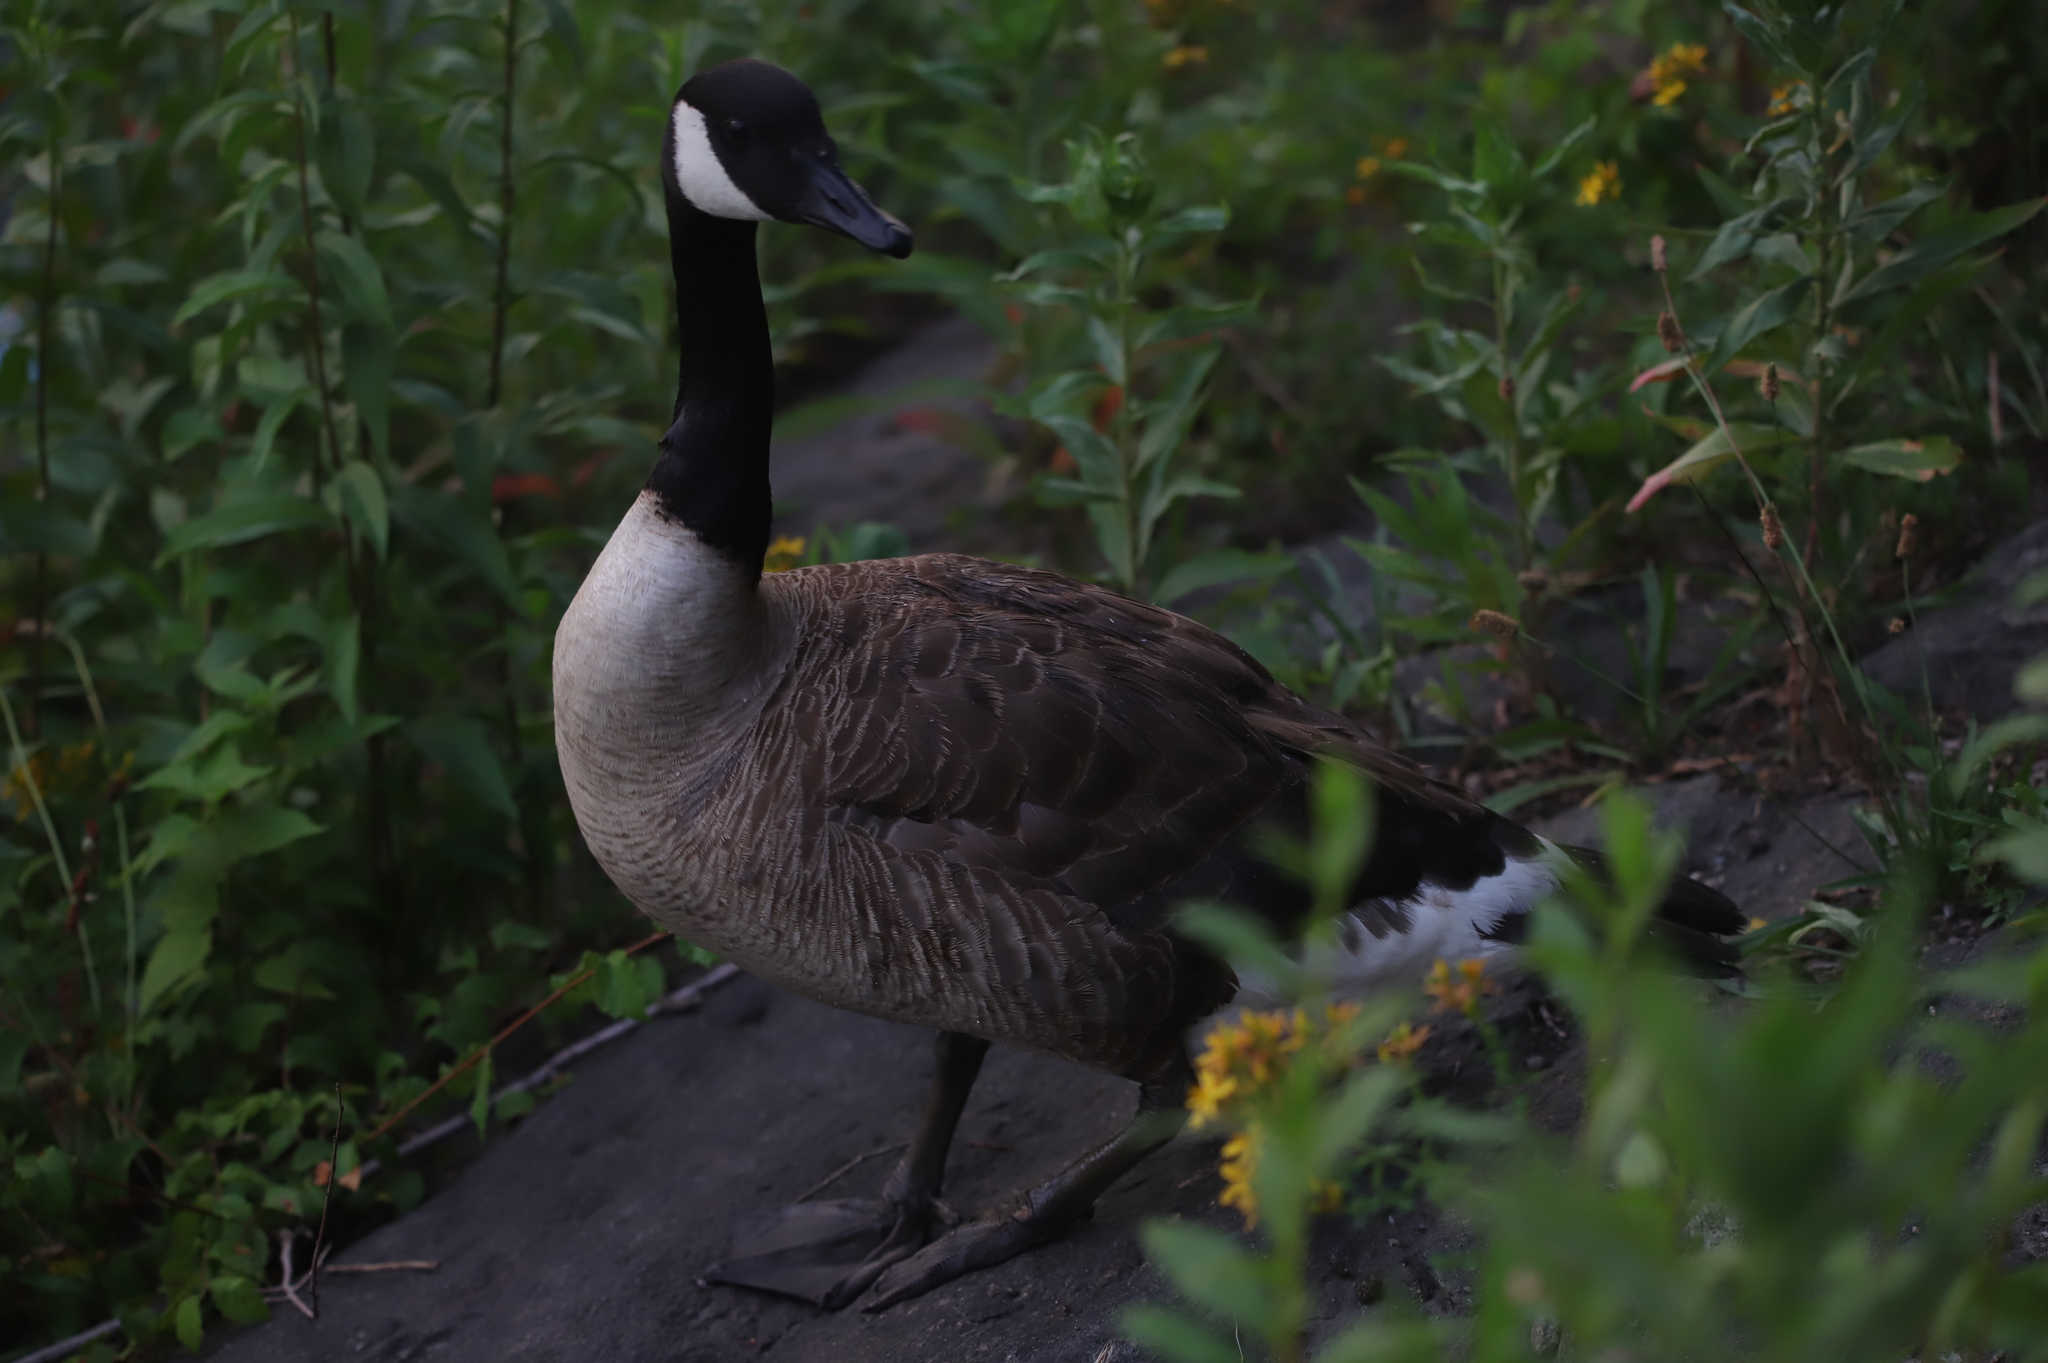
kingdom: Animalia
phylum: Chordata
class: Aves
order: Anseriformes
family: Anatidae
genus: Branta
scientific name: Branta canadensis
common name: Canada goose
